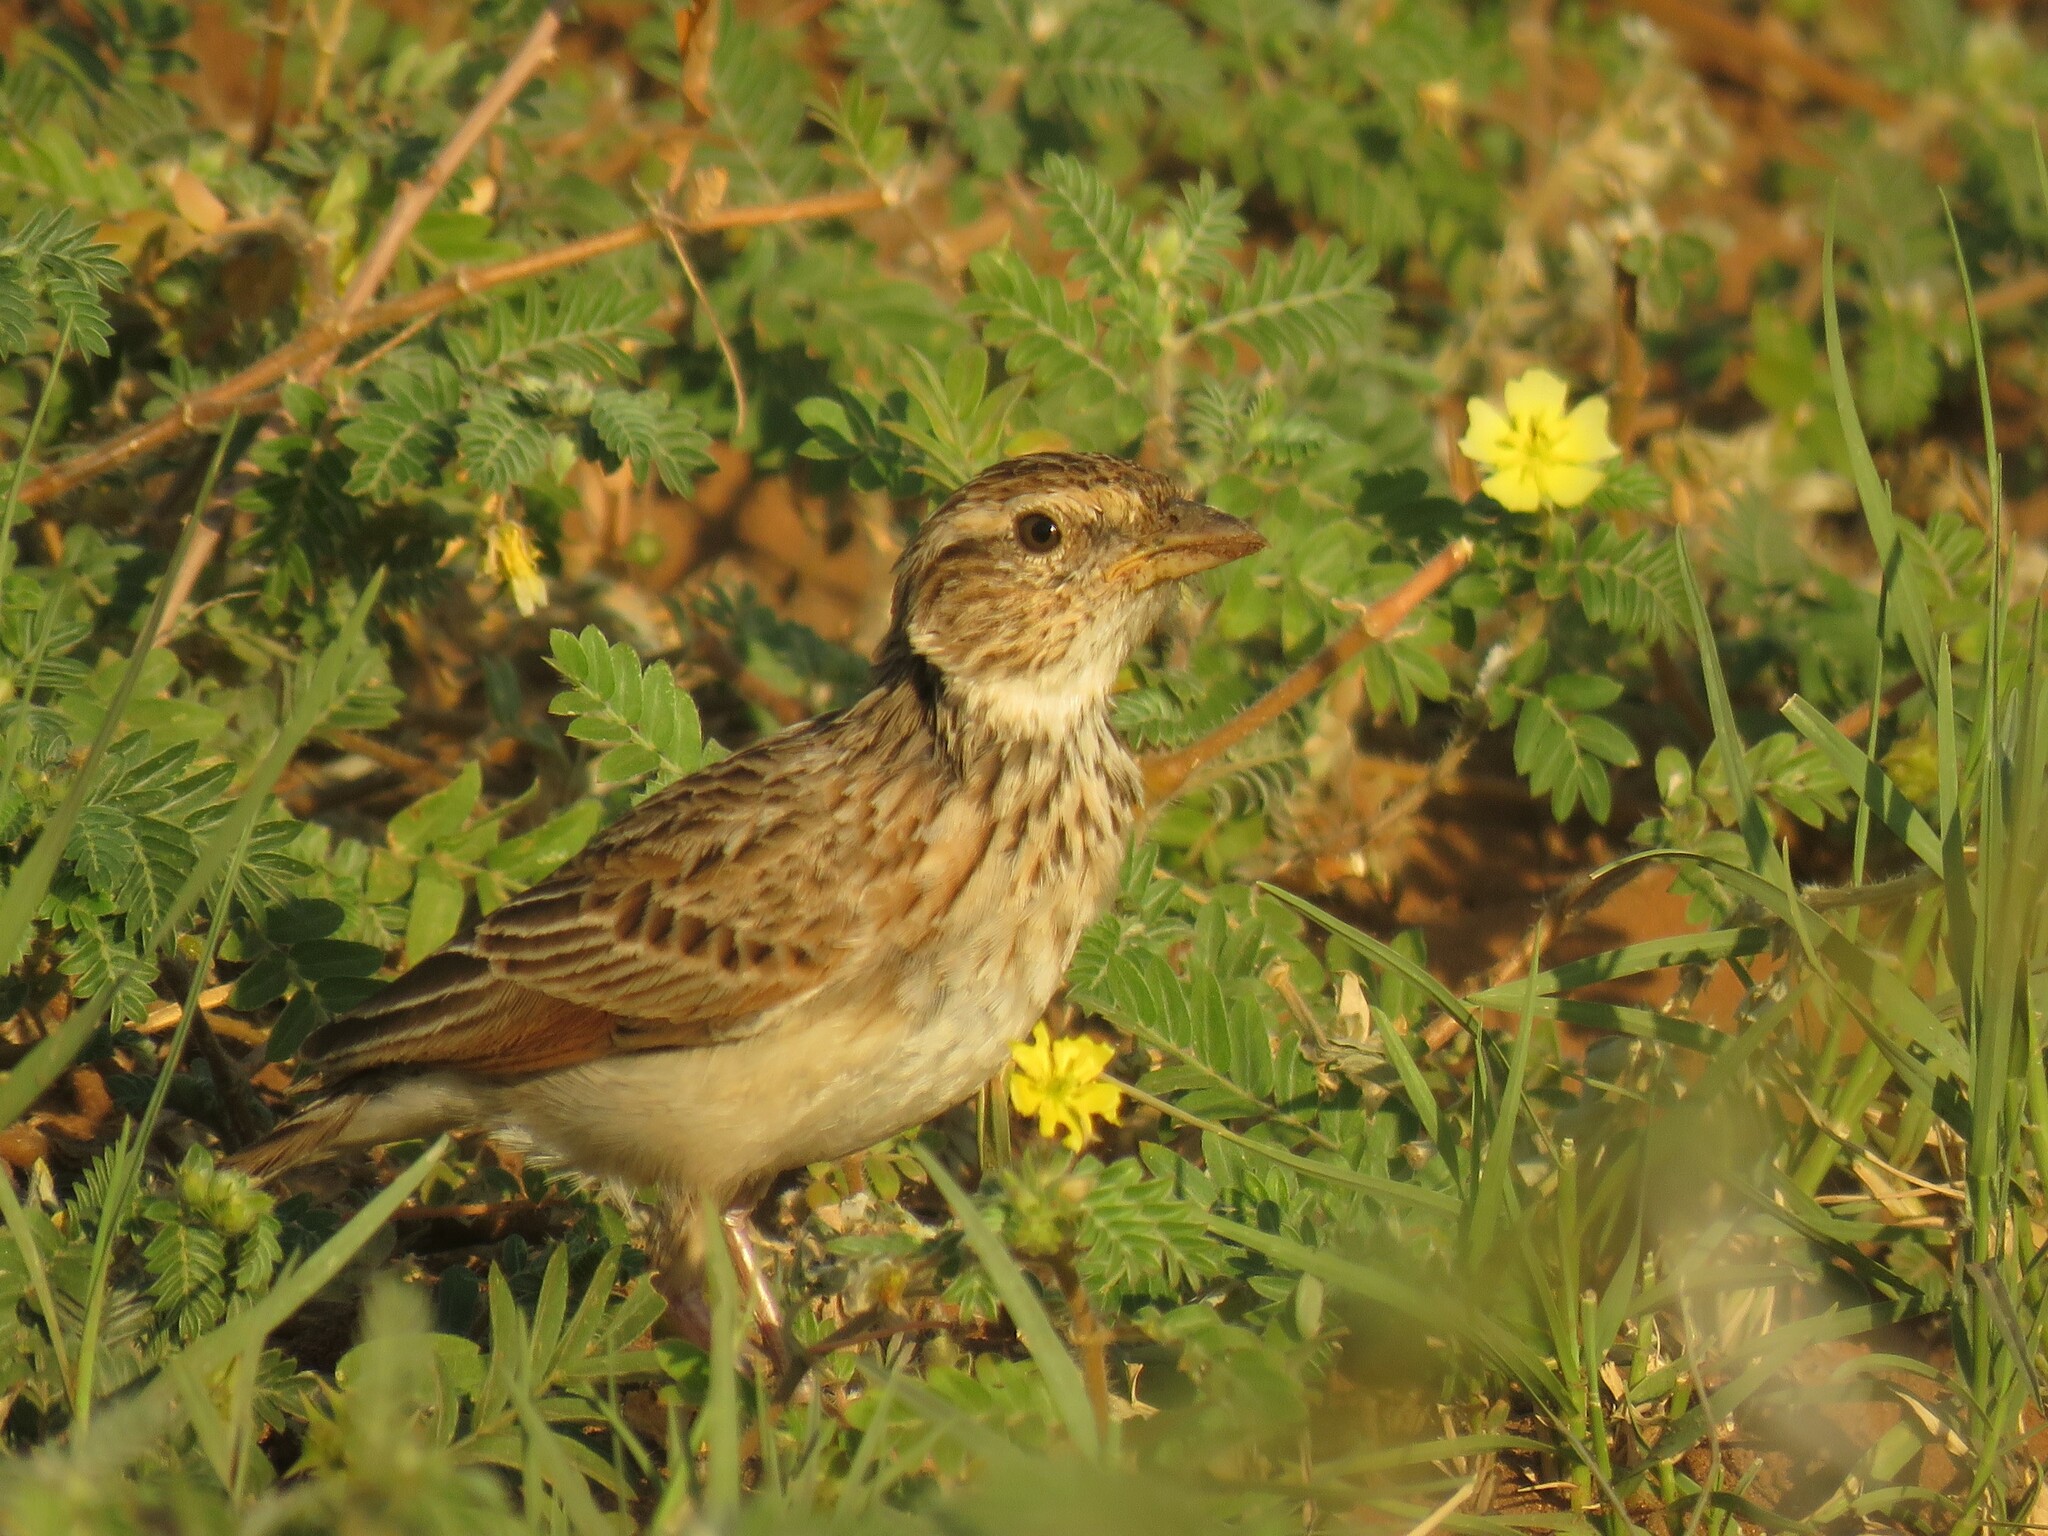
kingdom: Animalia
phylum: Chordata
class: Aves
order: Passeriformes
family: Alaudidae
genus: Mirafra
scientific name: Mirafra passerina
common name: Monotonous lark
